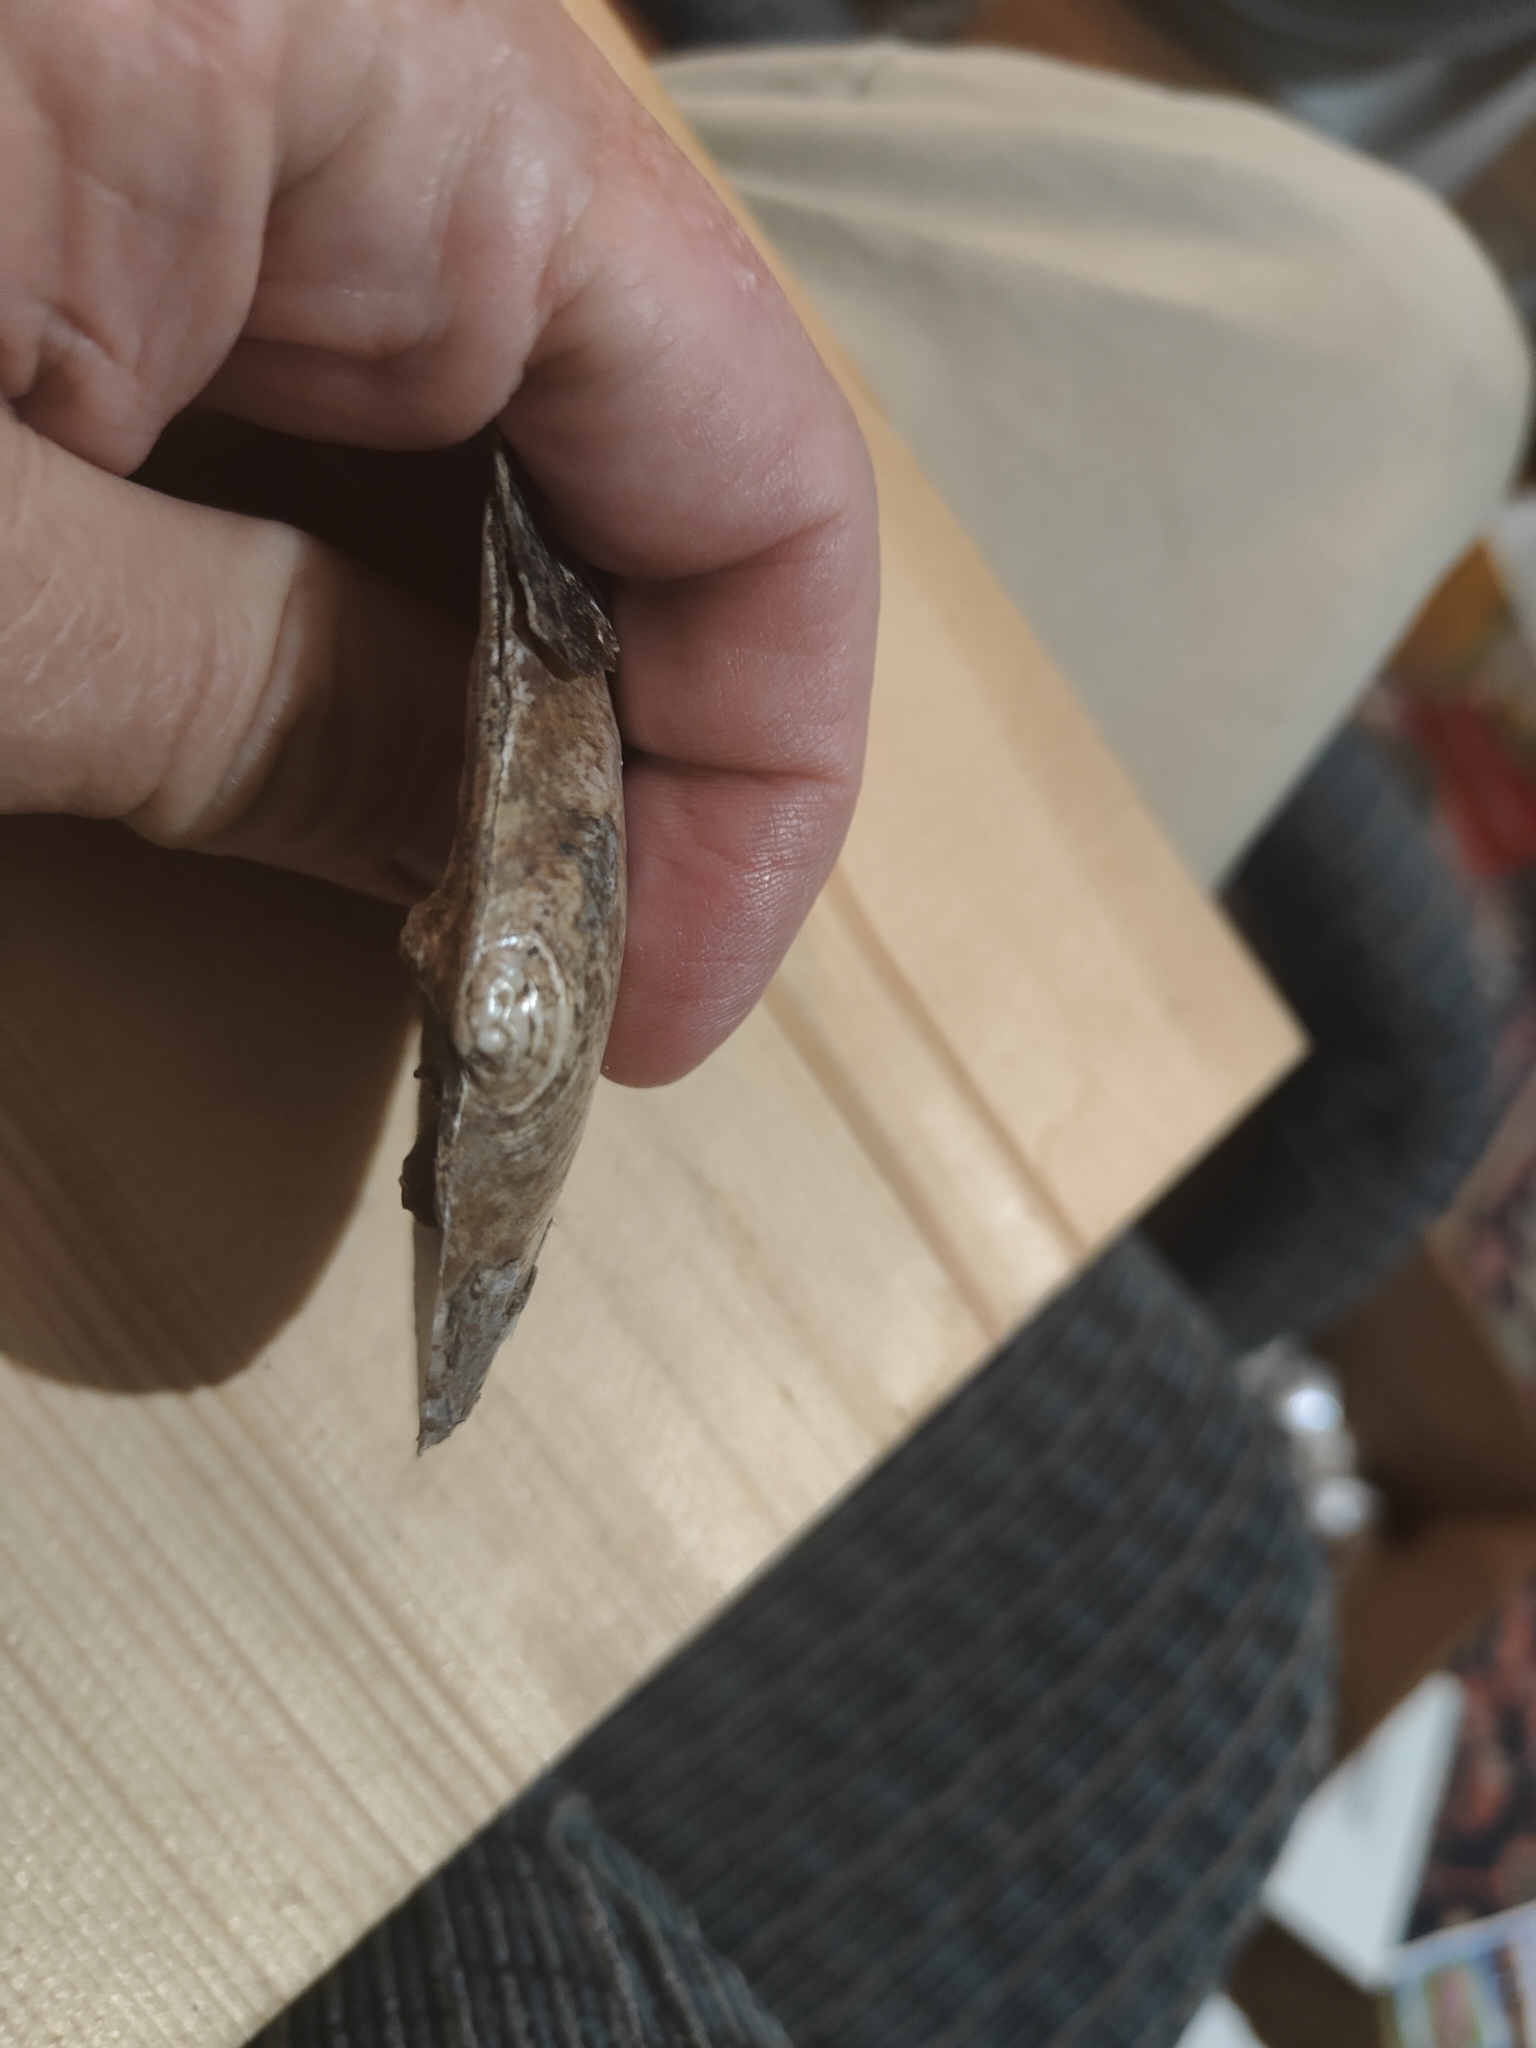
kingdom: Animalia
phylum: Mollusca
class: Bivalvia
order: Unionida
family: Unionidae
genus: Lasmigona
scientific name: Lasmigona complanata
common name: White heelsplitter
